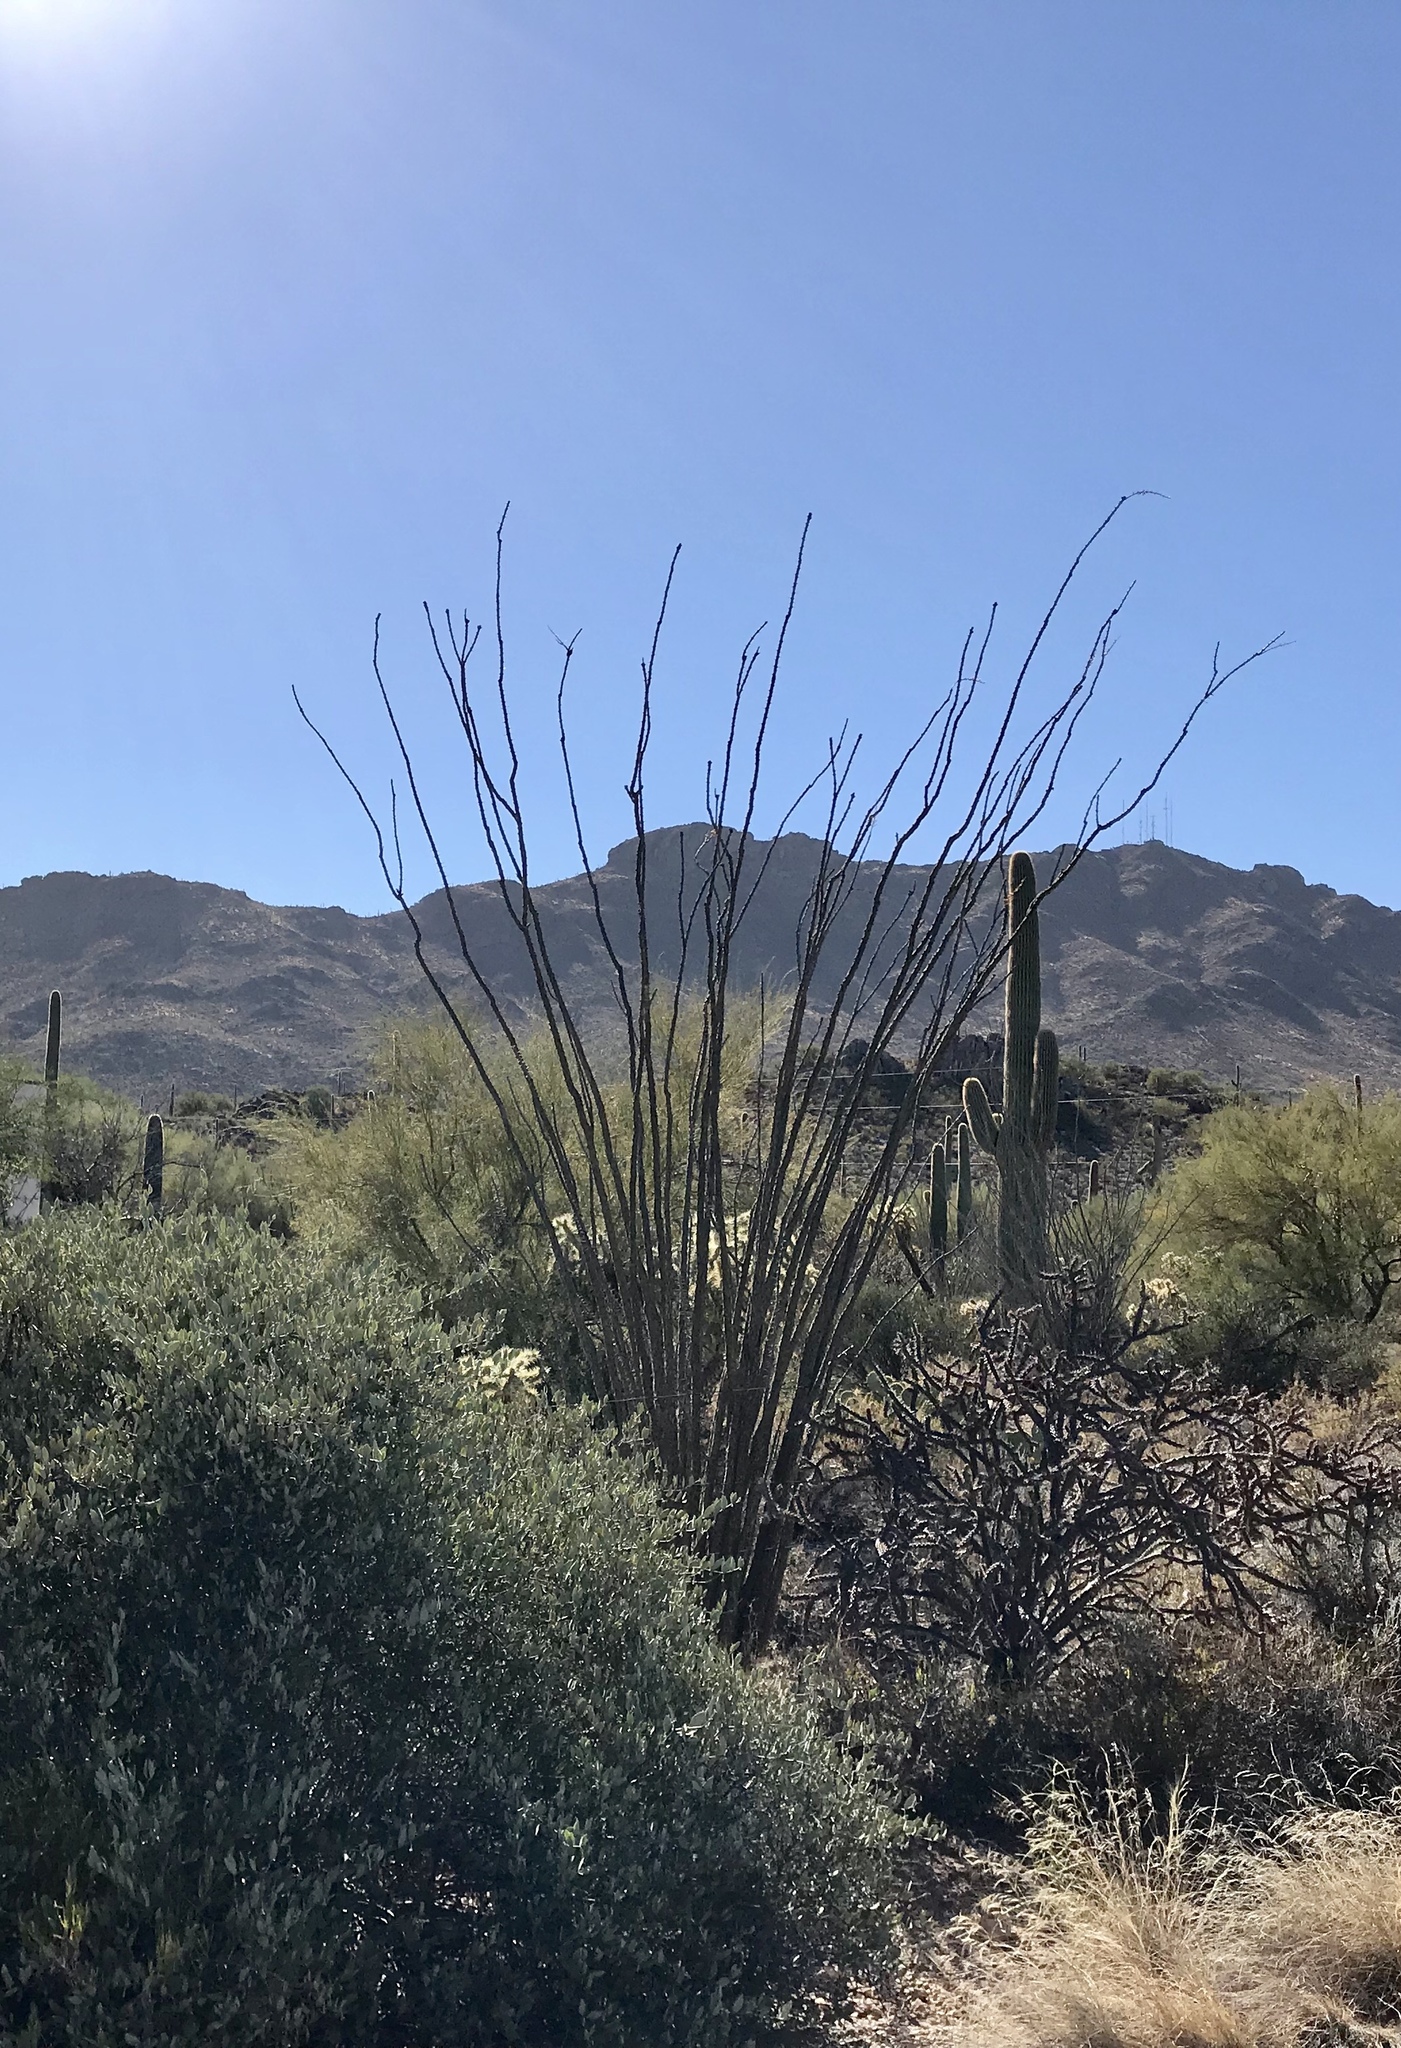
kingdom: Plantae
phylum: Tracheophyta
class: Magnoliopsida
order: Ericales
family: Fouquieriaceae
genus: Fouquieria
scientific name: Fouquieria splendens
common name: Vine-cactus
